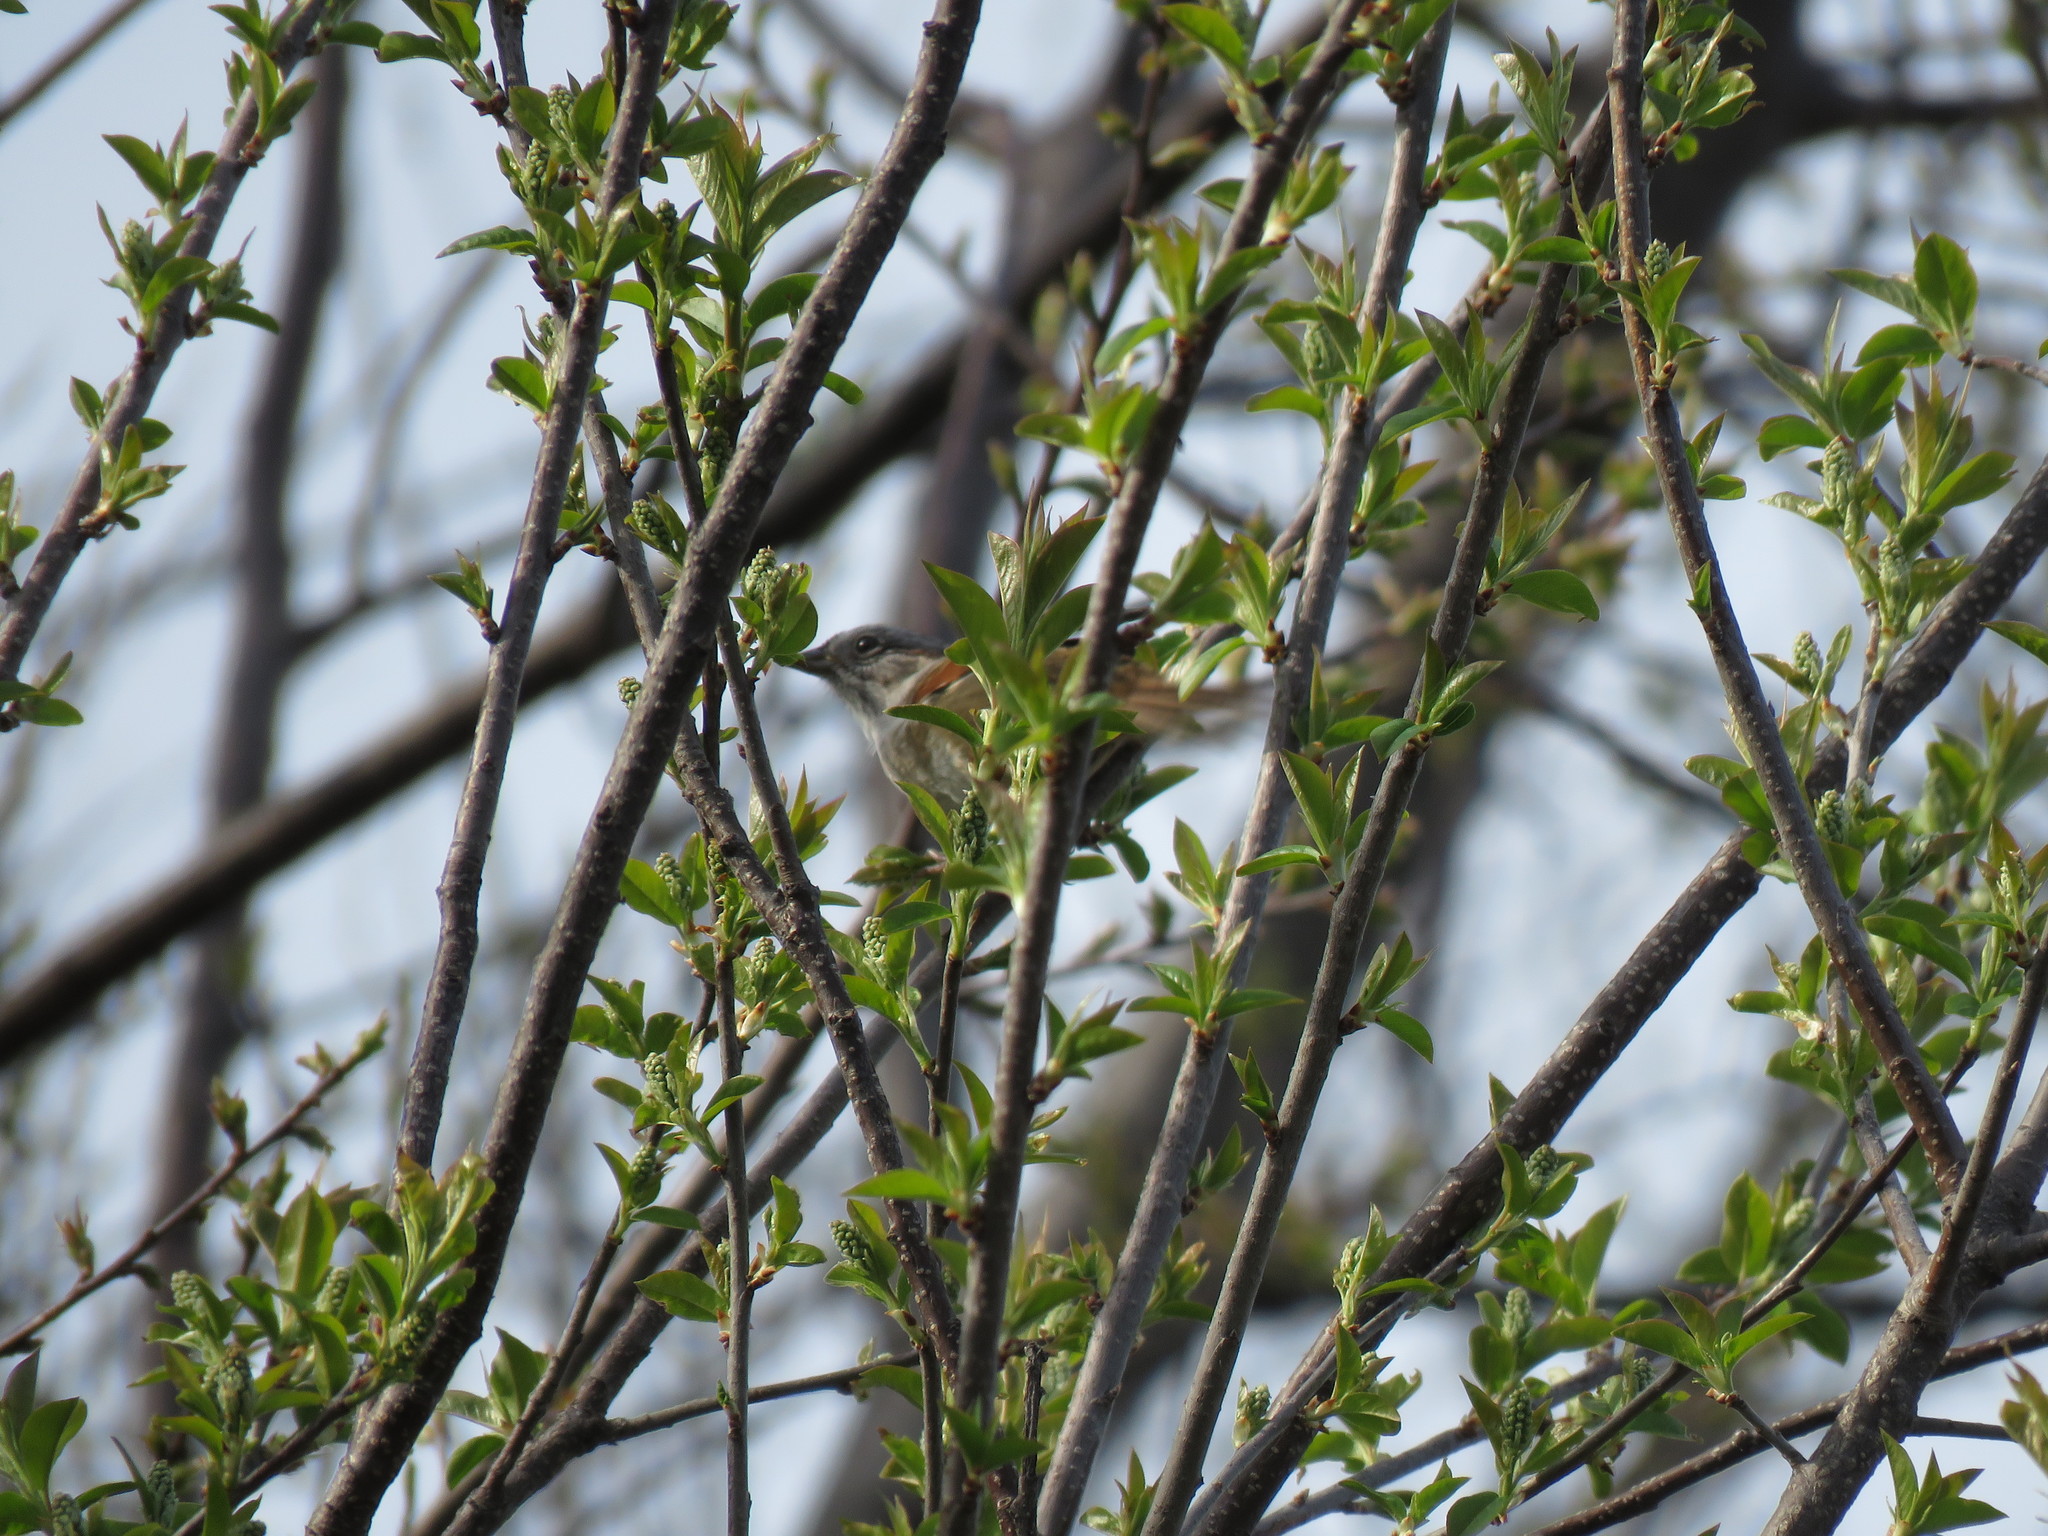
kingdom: Animalia
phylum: Chordata
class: Aves
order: Passeriformes
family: Passerellidae
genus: Melospiza
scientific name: Melospiza georgiana
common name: Swamp sparrow
